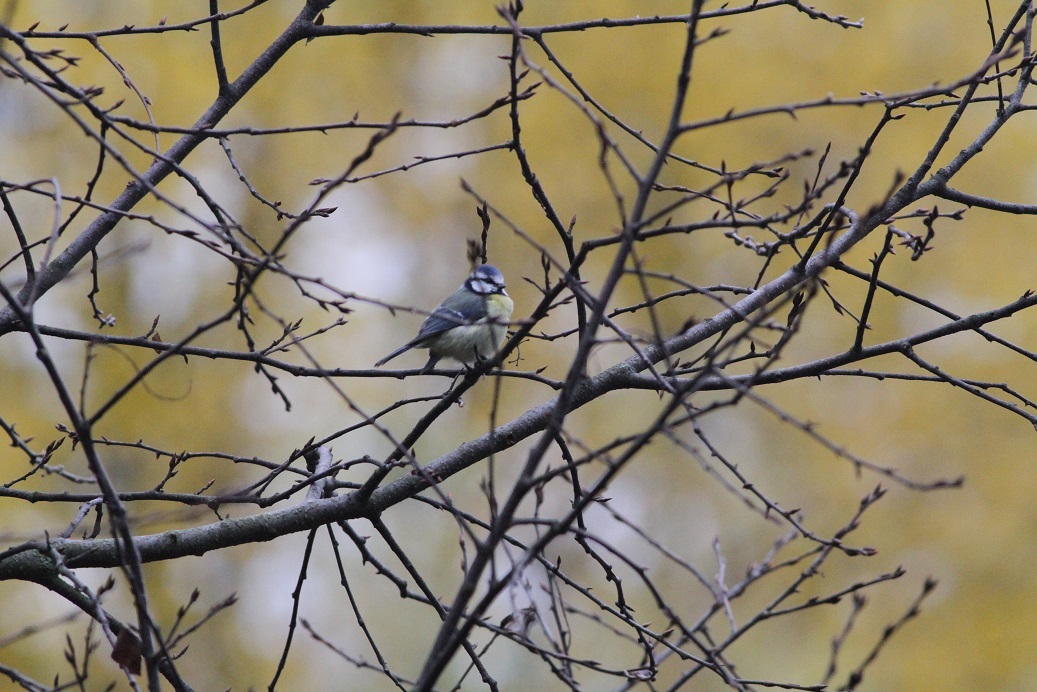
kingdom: Animalia
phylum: Chordata
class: Aves
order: Passeriformes
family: Paridae
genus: Cyanistes
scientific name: Cyanistes caeruleus
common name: Eurasian blue tit
